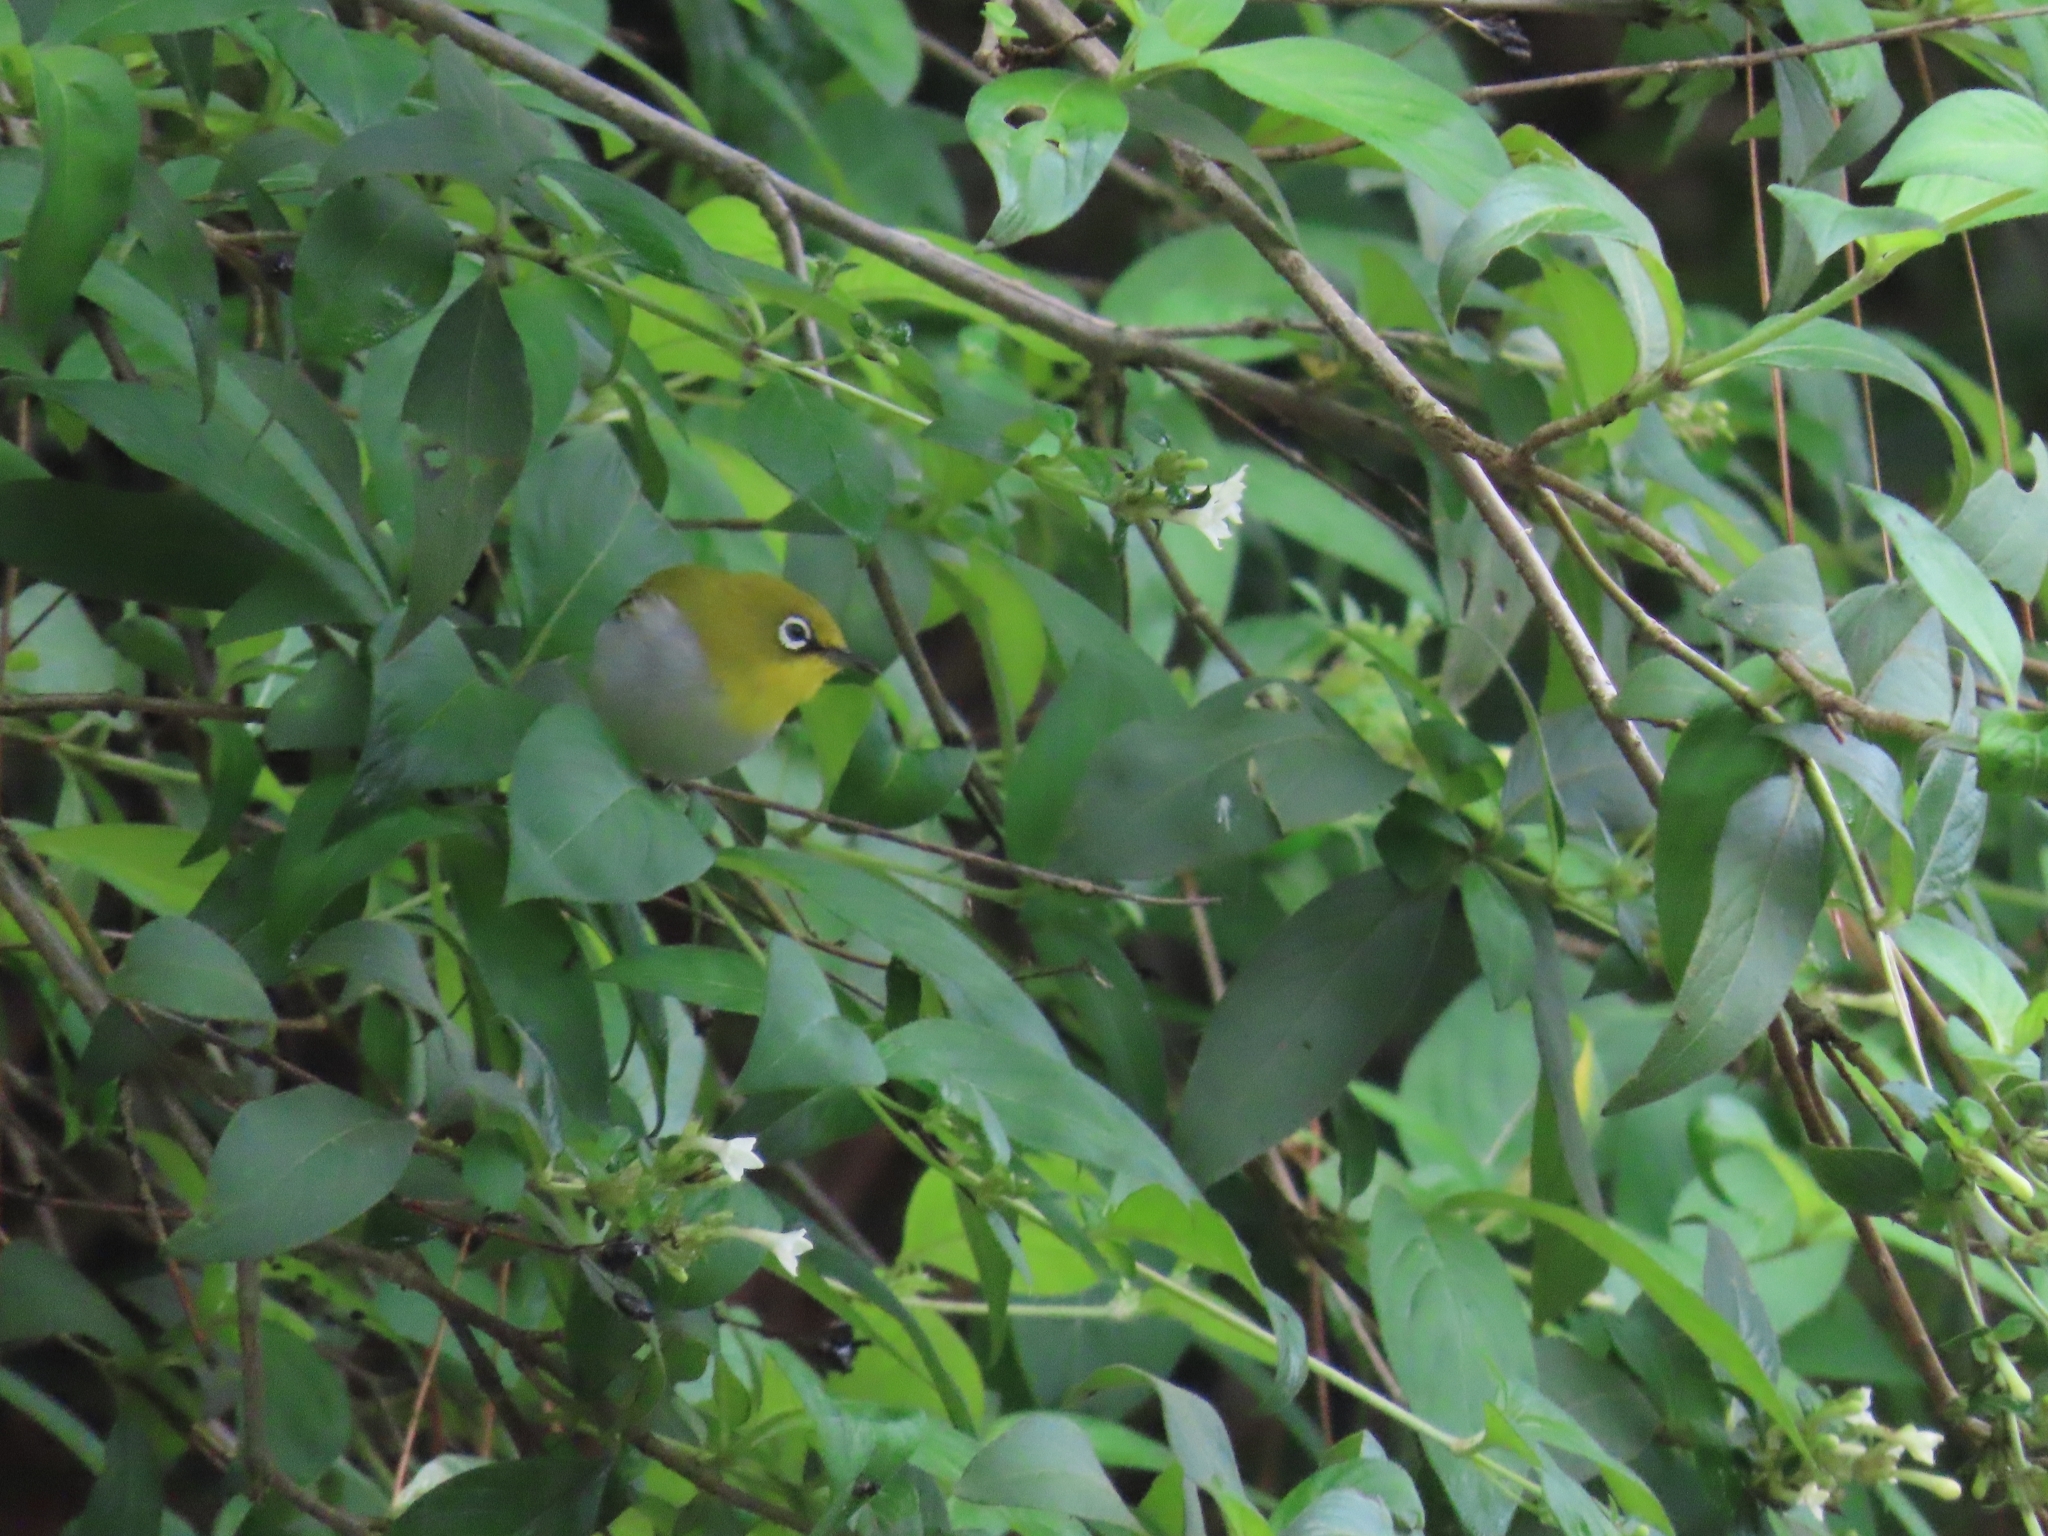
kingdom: Animalia
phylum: Chordata
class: Aves
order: Passeriformes
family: Zosteropidae
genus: Zosterops
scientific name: Zosterops palpebrosus
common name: Oriental white-eye
